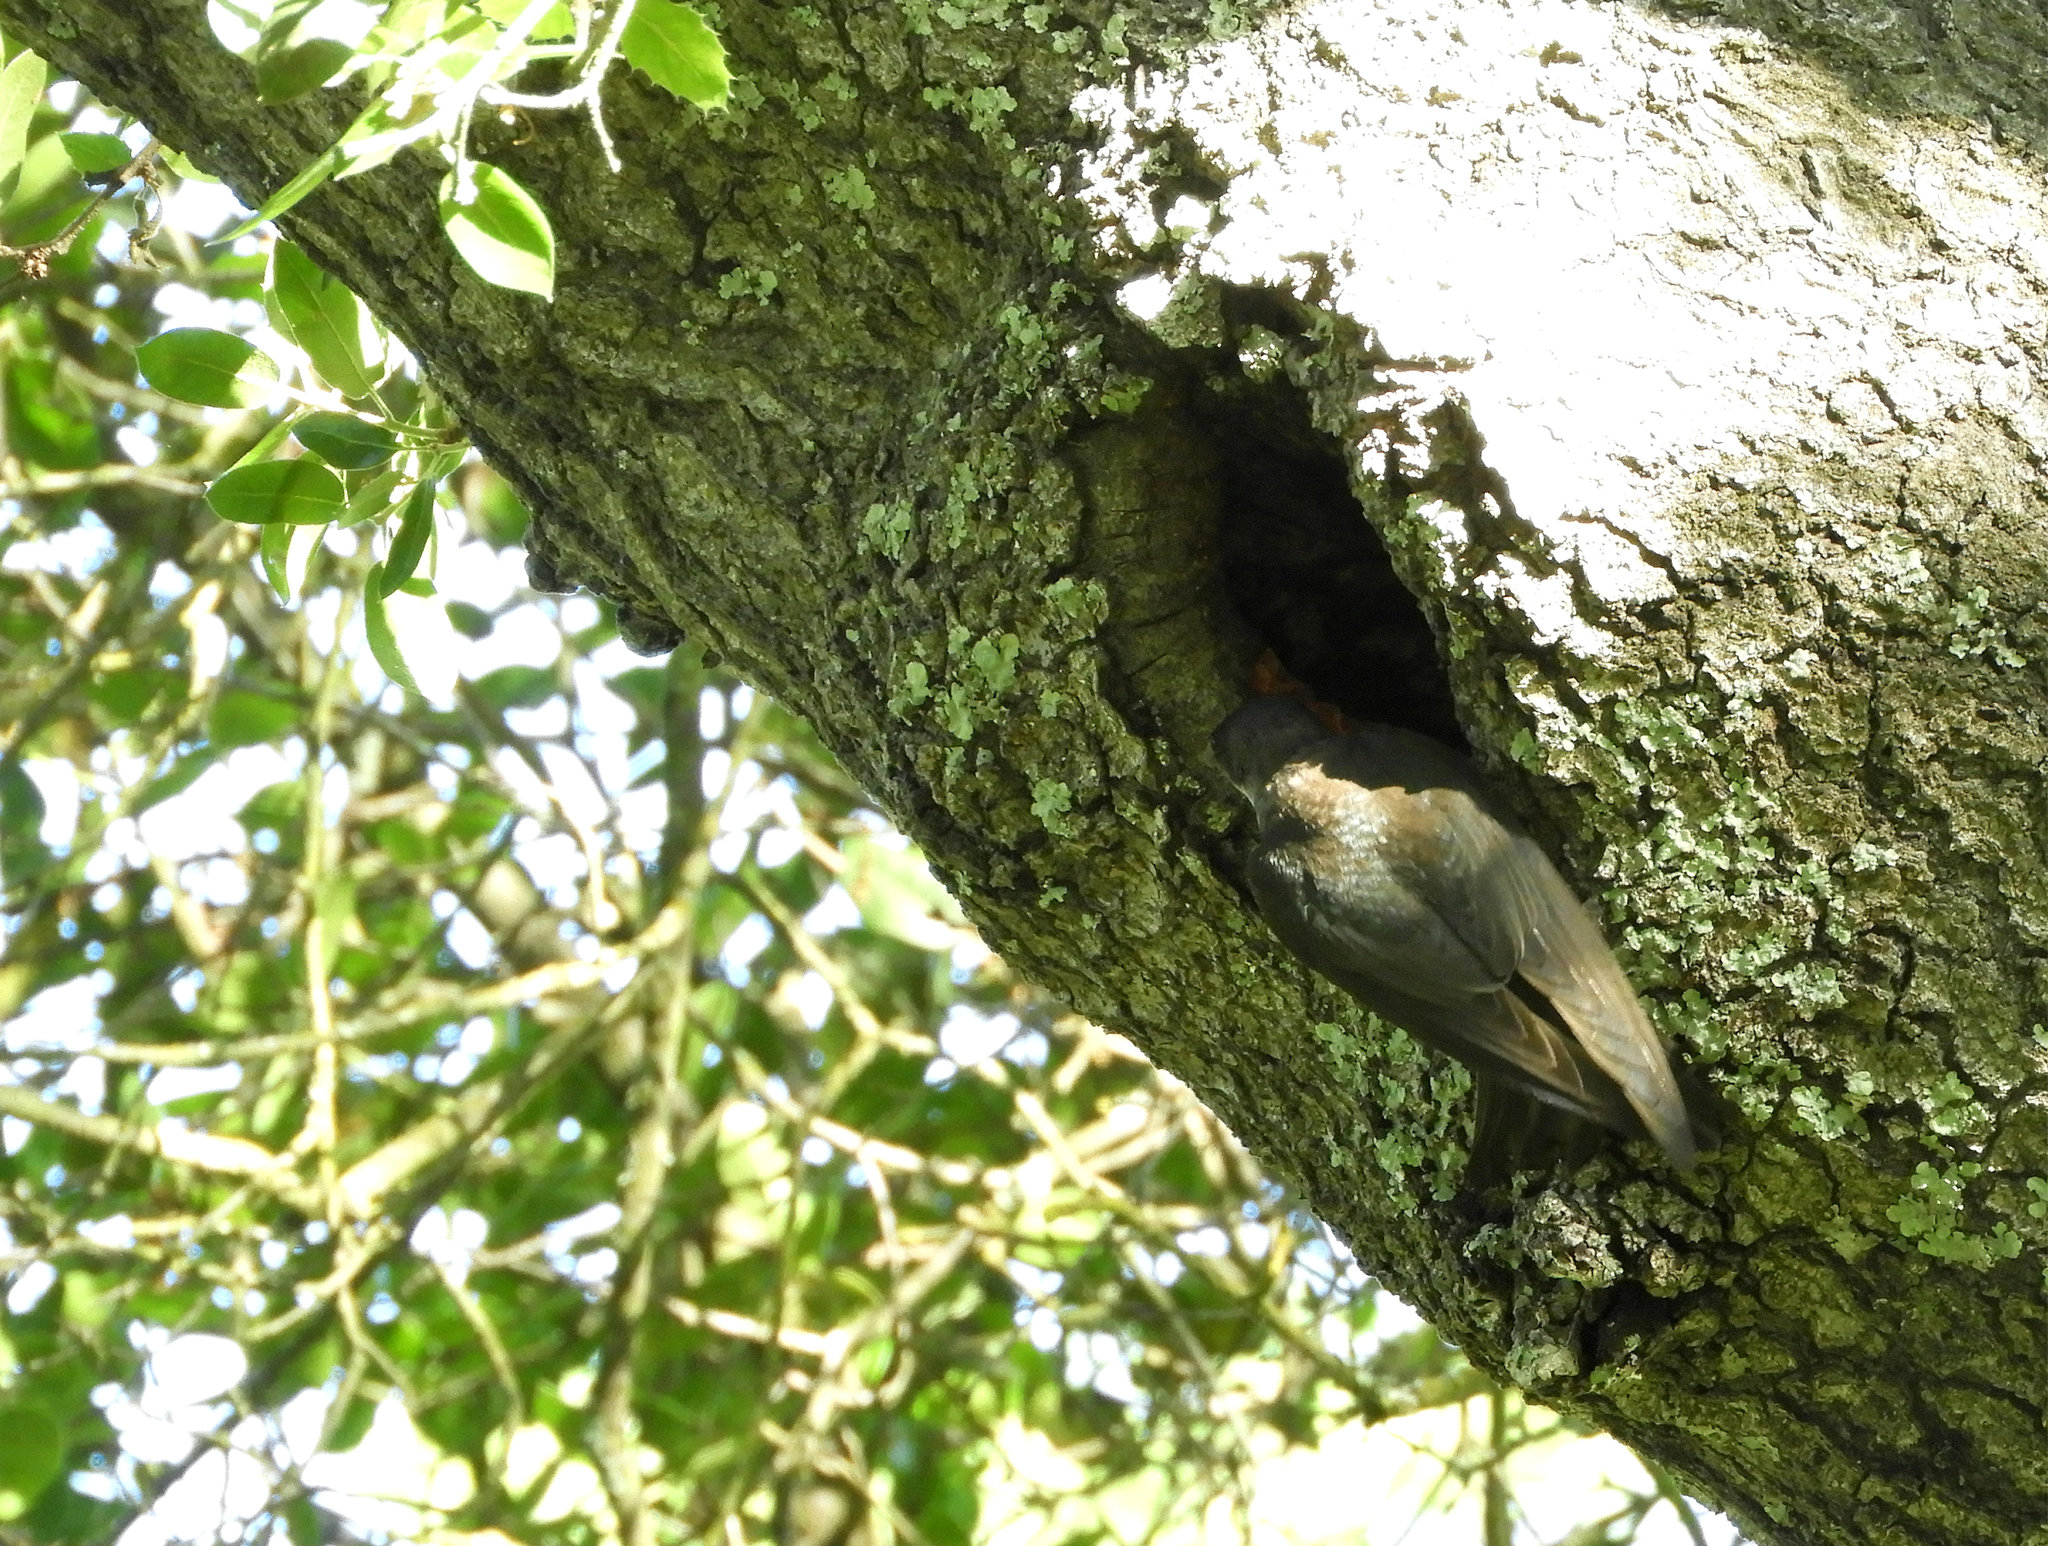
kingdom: Animalia
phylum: Chordata
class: Aves
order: Passeriformes
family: Hirundinidae
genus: Tachycineta
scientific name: Tachycineta bicolor
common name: Tree swallow
